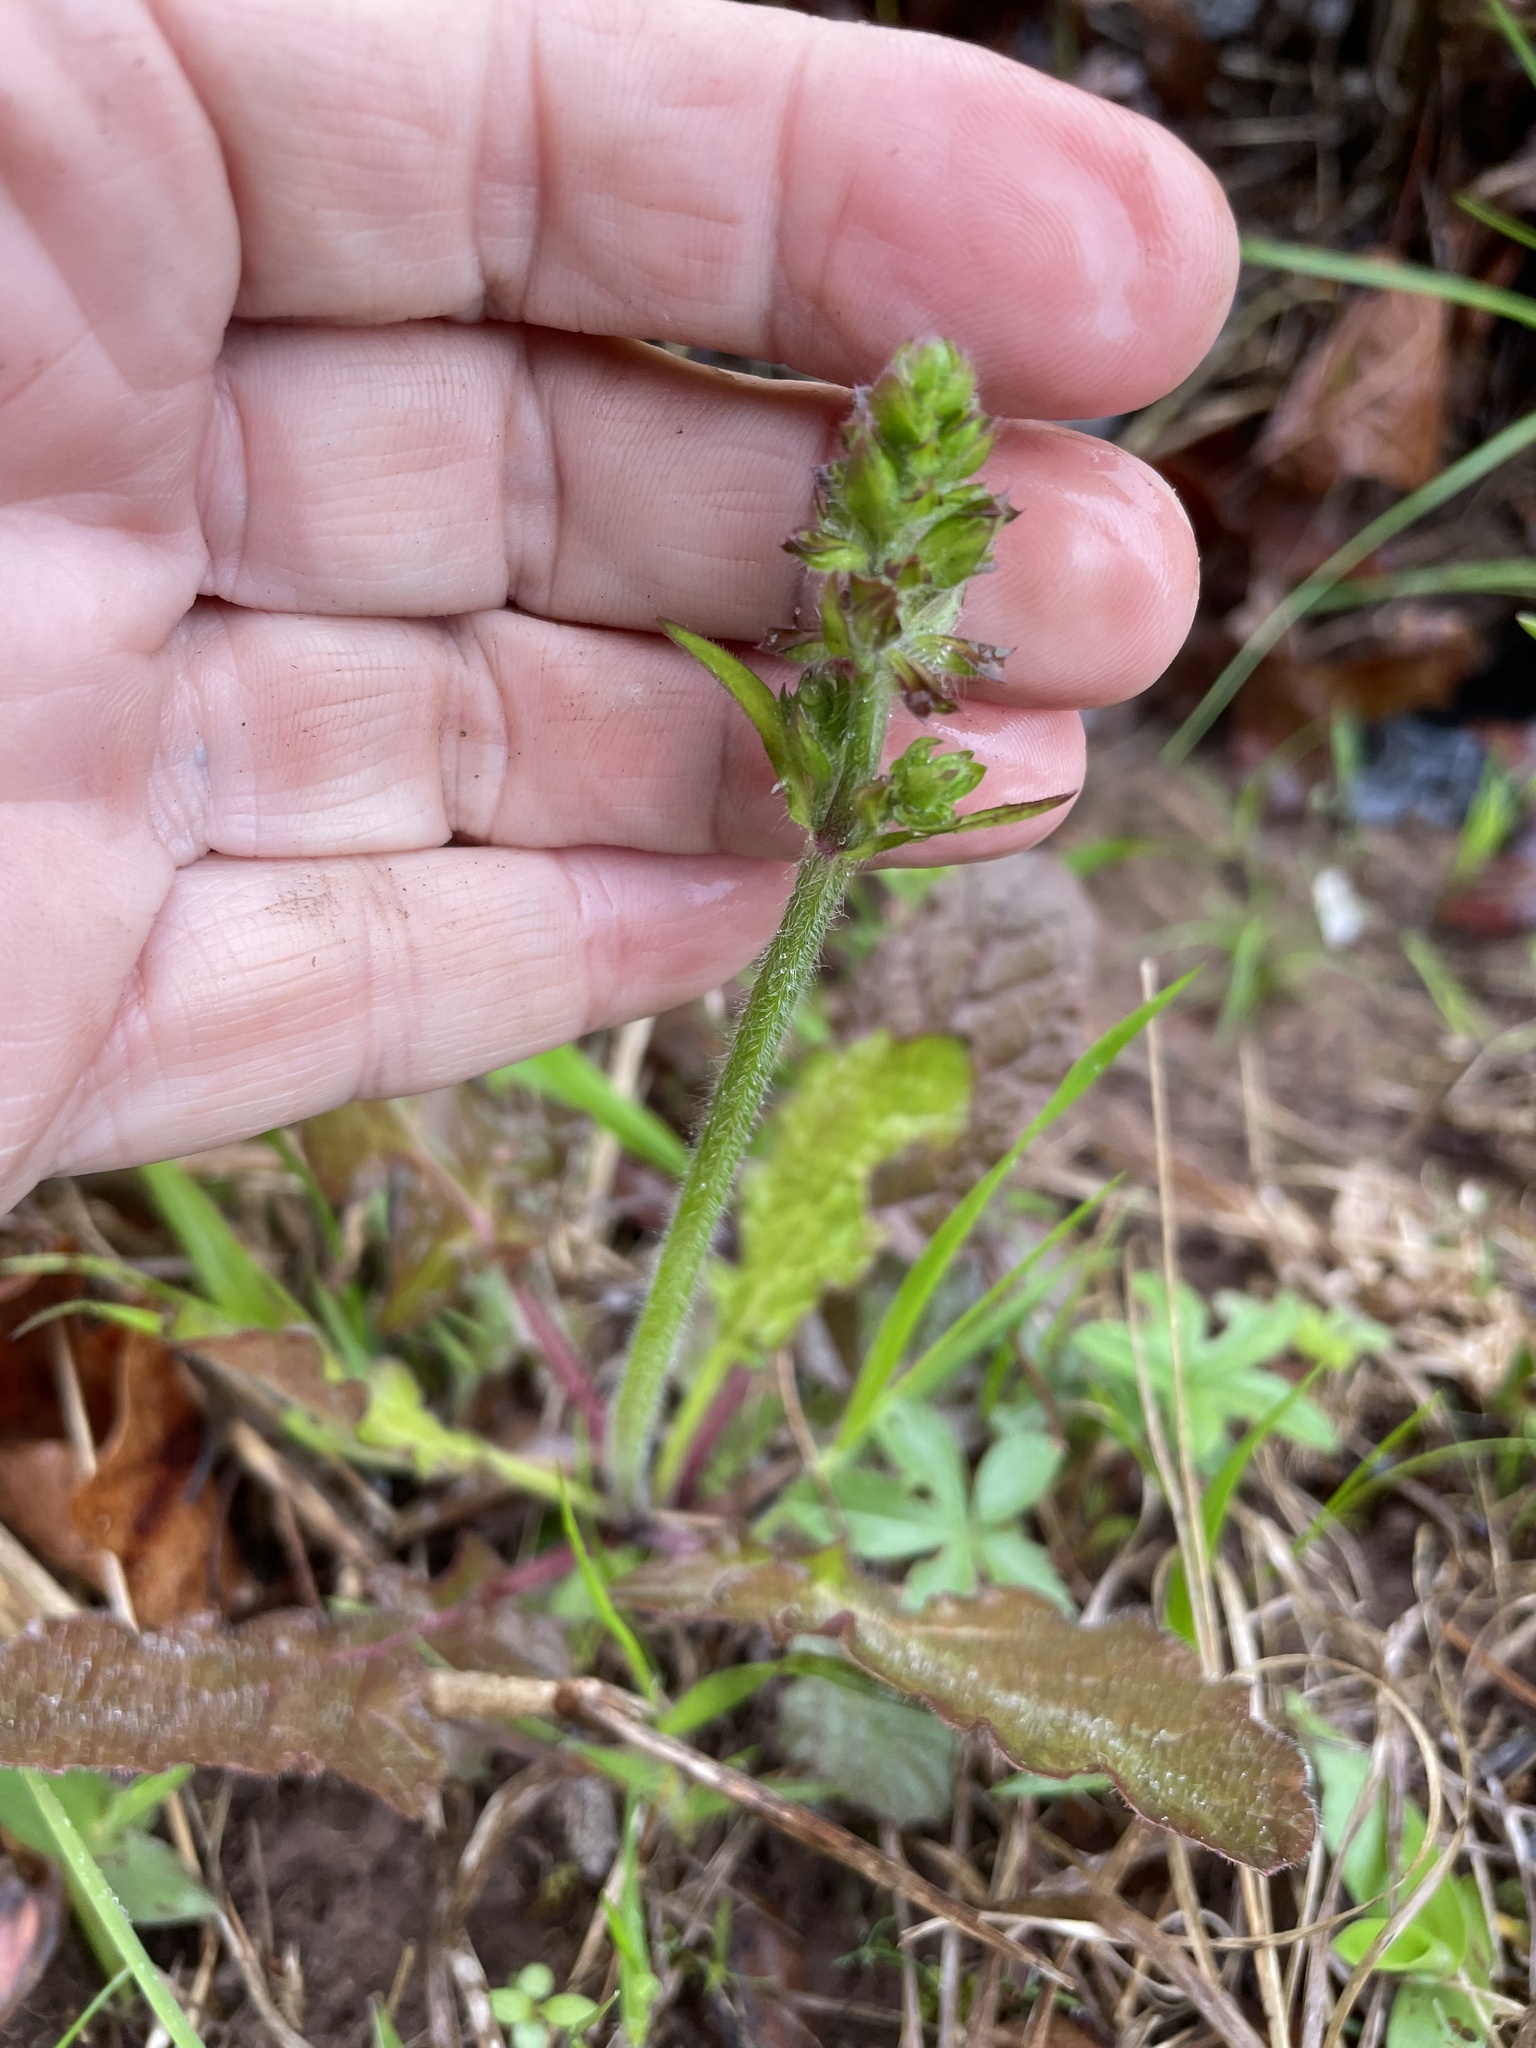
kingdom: Plantae
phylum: Tracheophyta
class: Magnoliopsida
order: Lamiales
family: Lamiaceae
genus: Salvia
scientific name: Salvia lyrata
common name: Cancerweed
